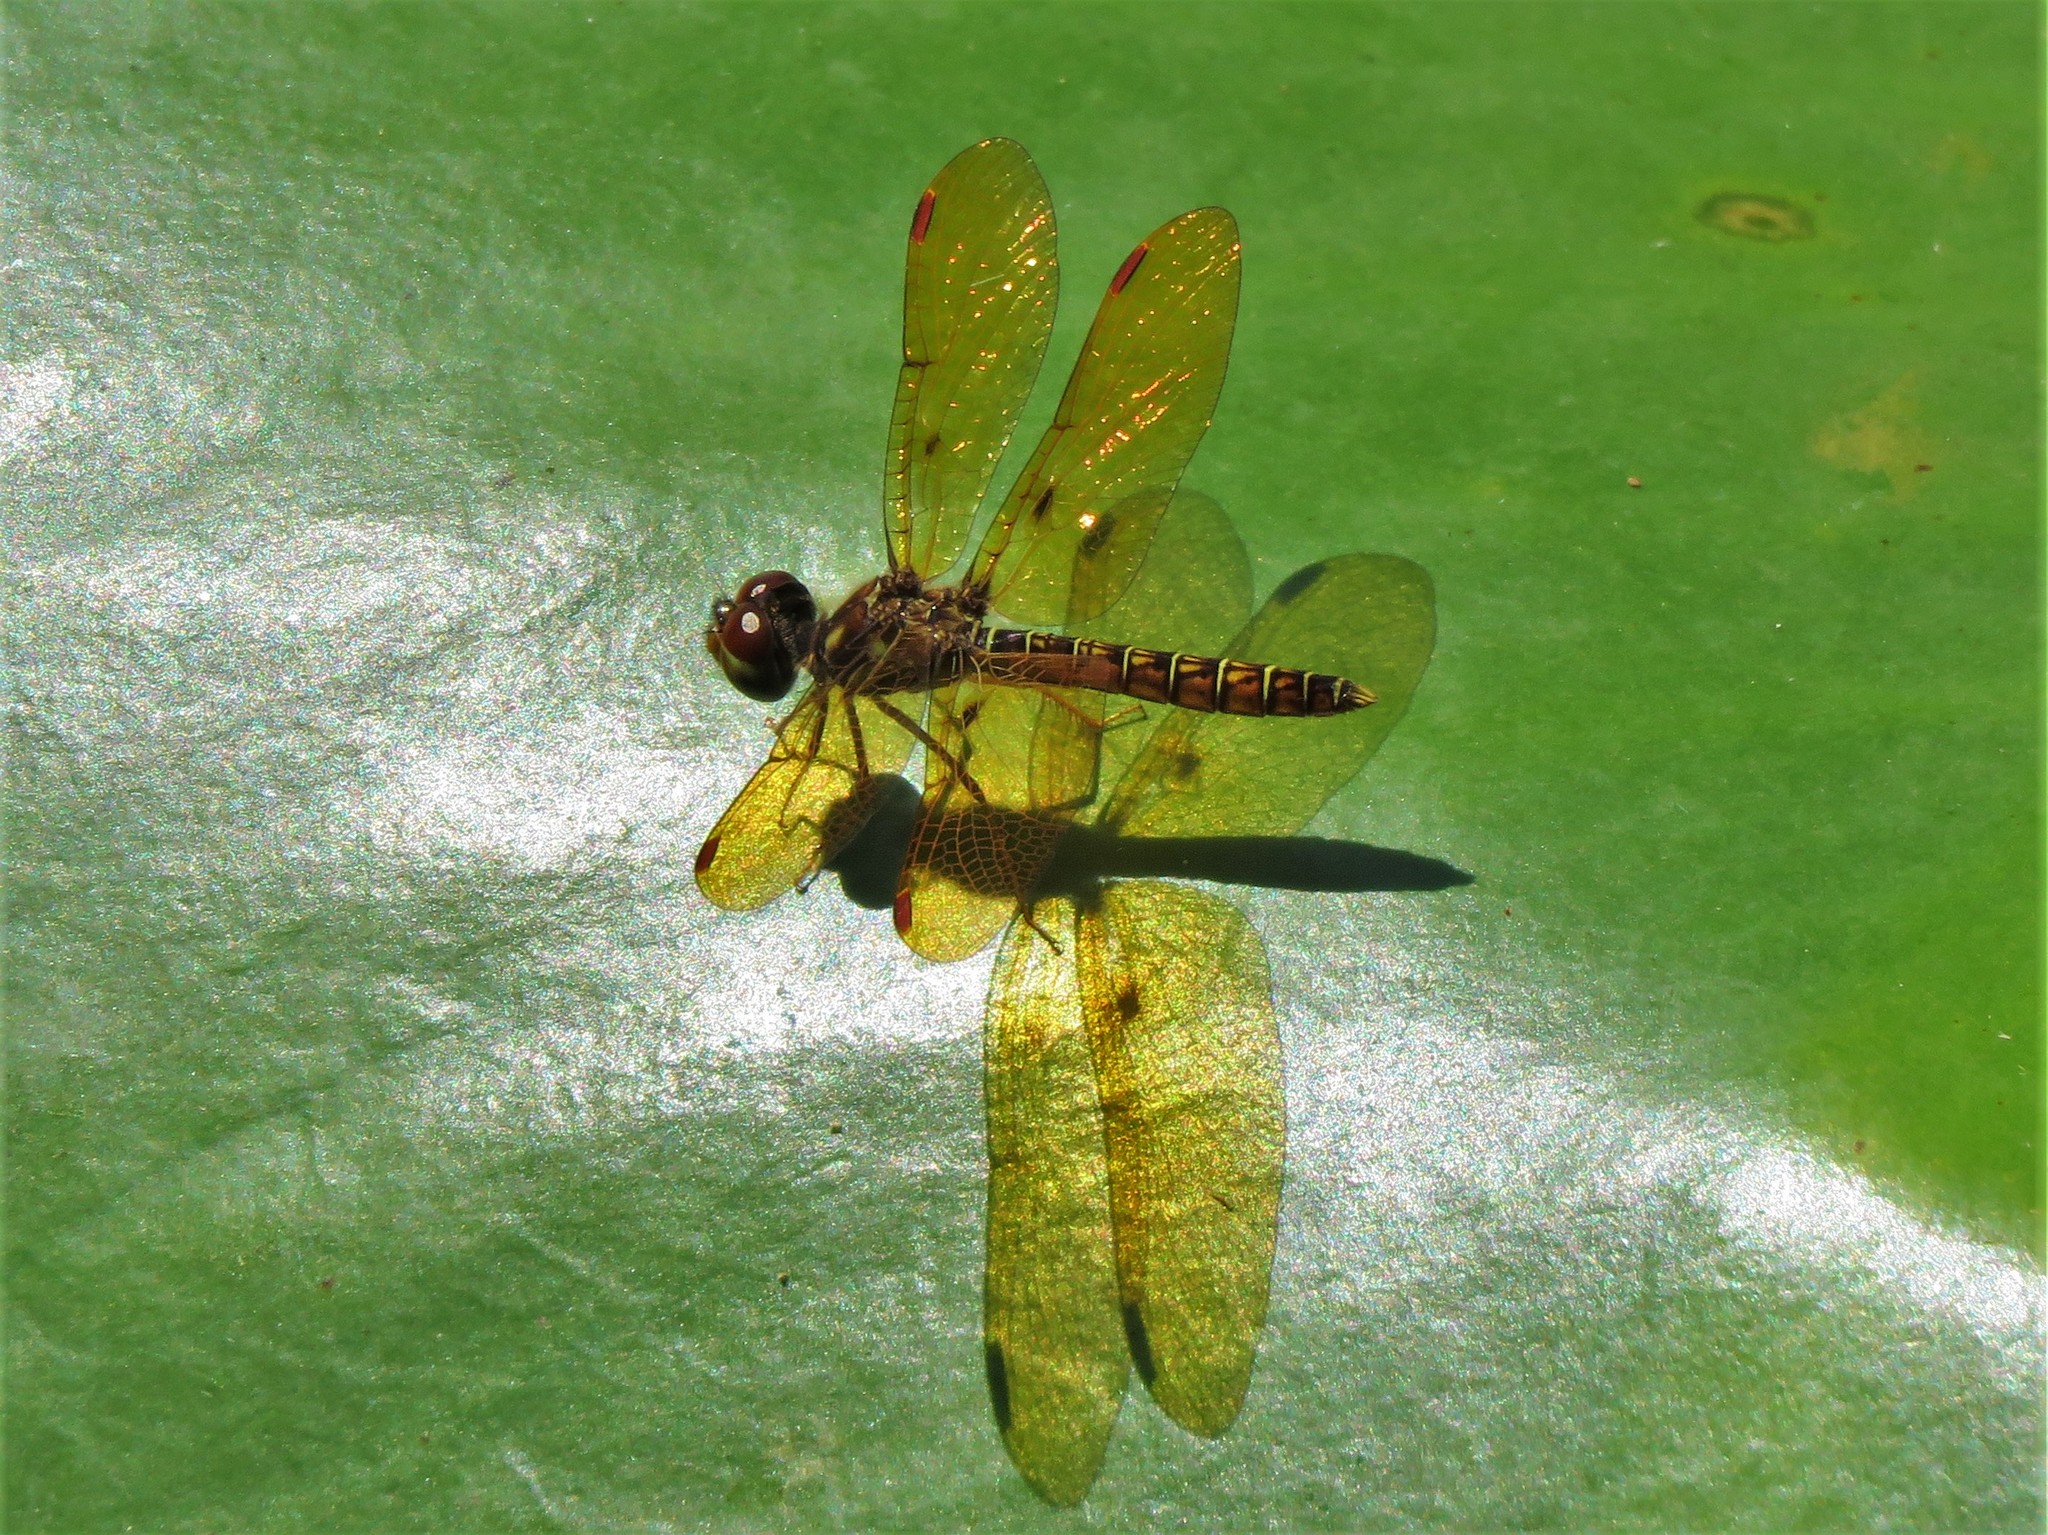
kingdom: Animalia
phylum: Arthropoda
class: Insecta
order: Odonata
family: Libellulidae
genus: Perithemis
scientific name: Perithemis tenera
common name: Eastern amberwing
